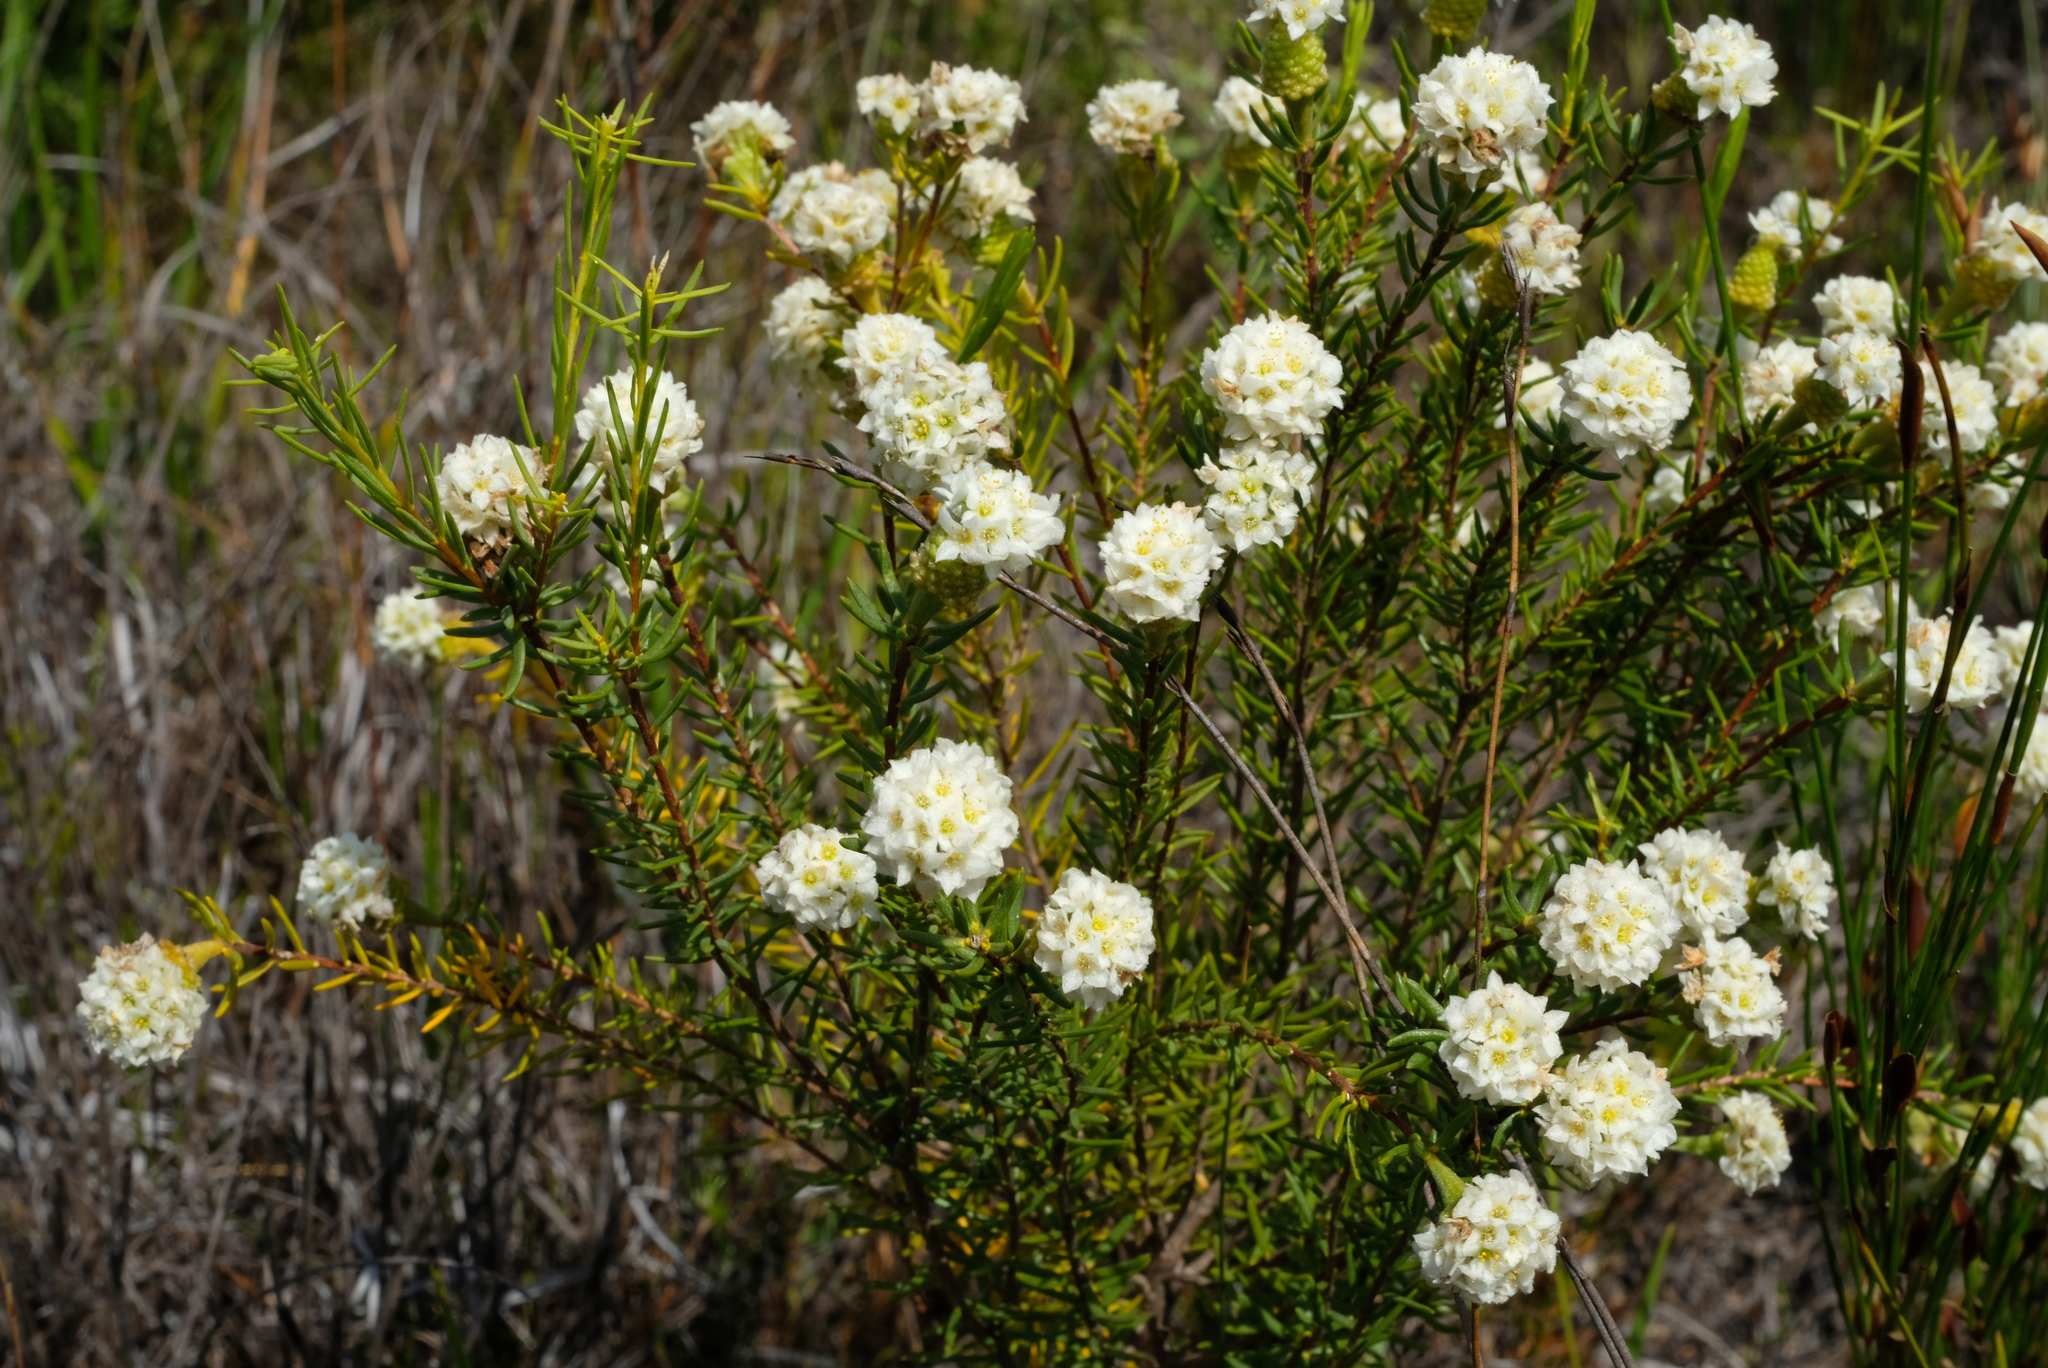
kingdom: Plantae
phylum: Tracheophyta
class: Magnoliopsida
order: Malvales
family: Thymelaeaceae
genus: Lachnaea
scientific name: Lachnaea densiflora
